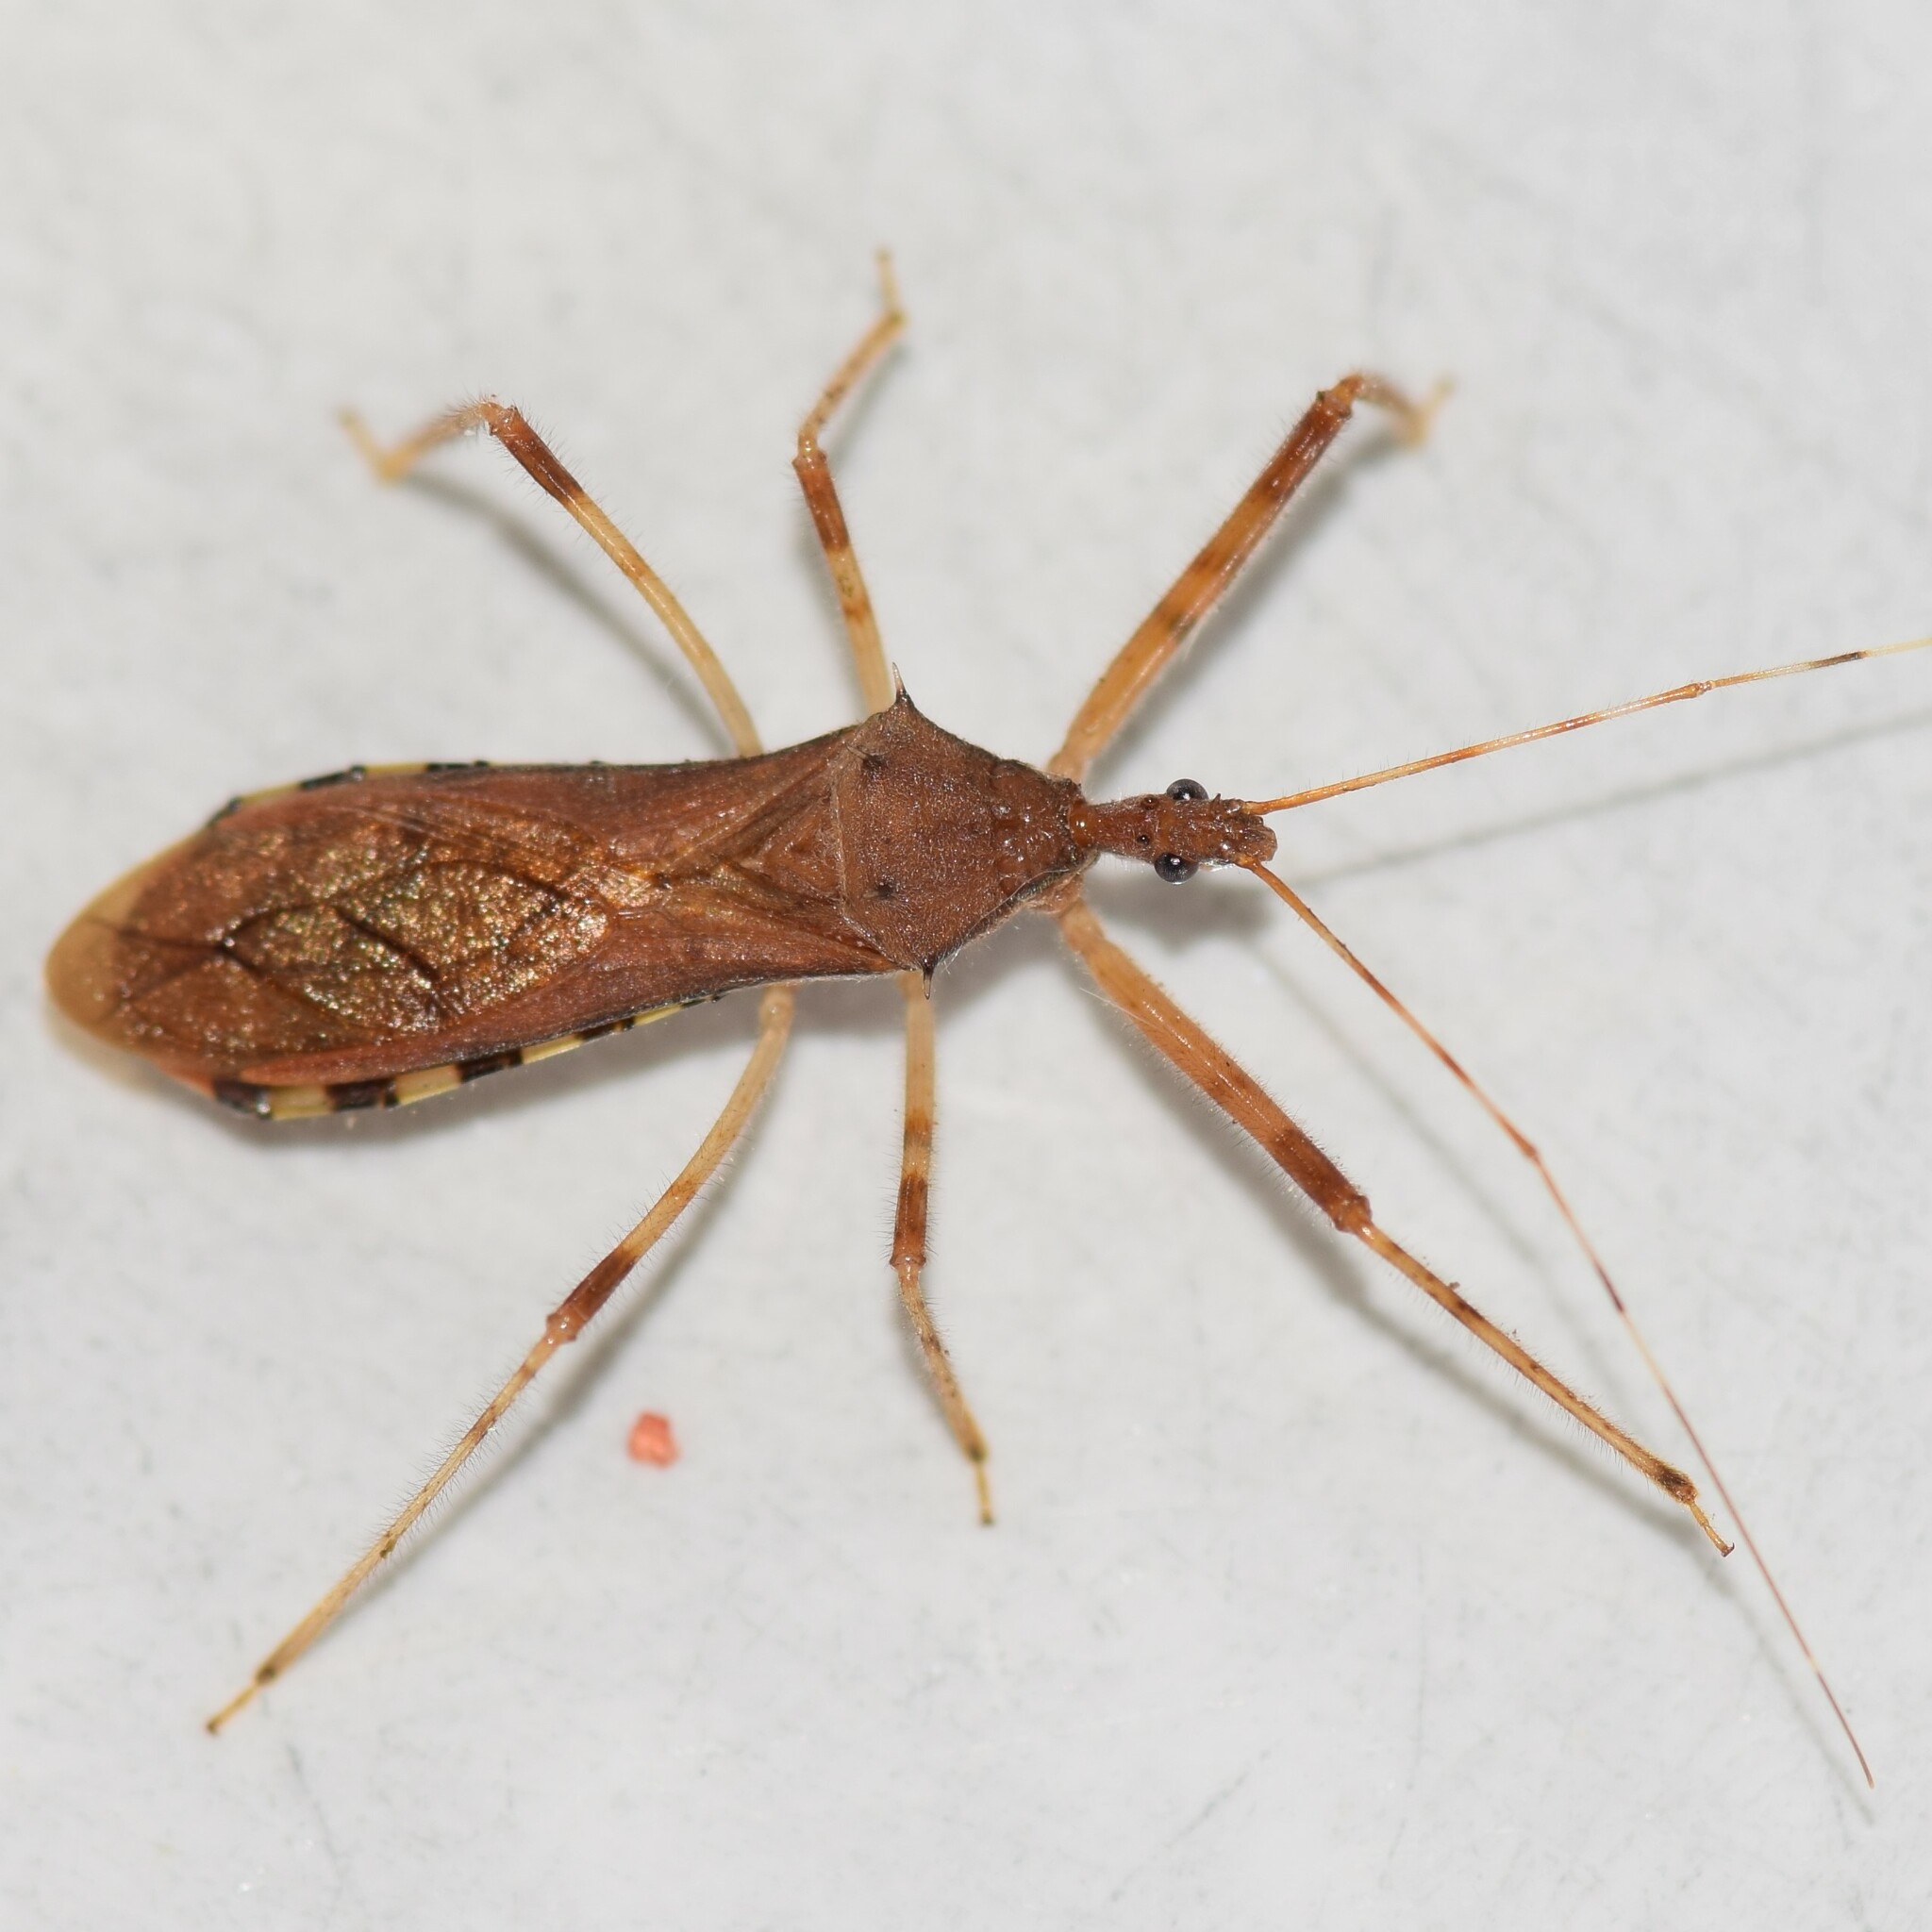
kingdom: Animalia
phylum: Arthropoda
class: Insecta
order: Hemiptera
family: Reduviidae
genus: Rocconota
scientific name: Rocconota annulicornis
